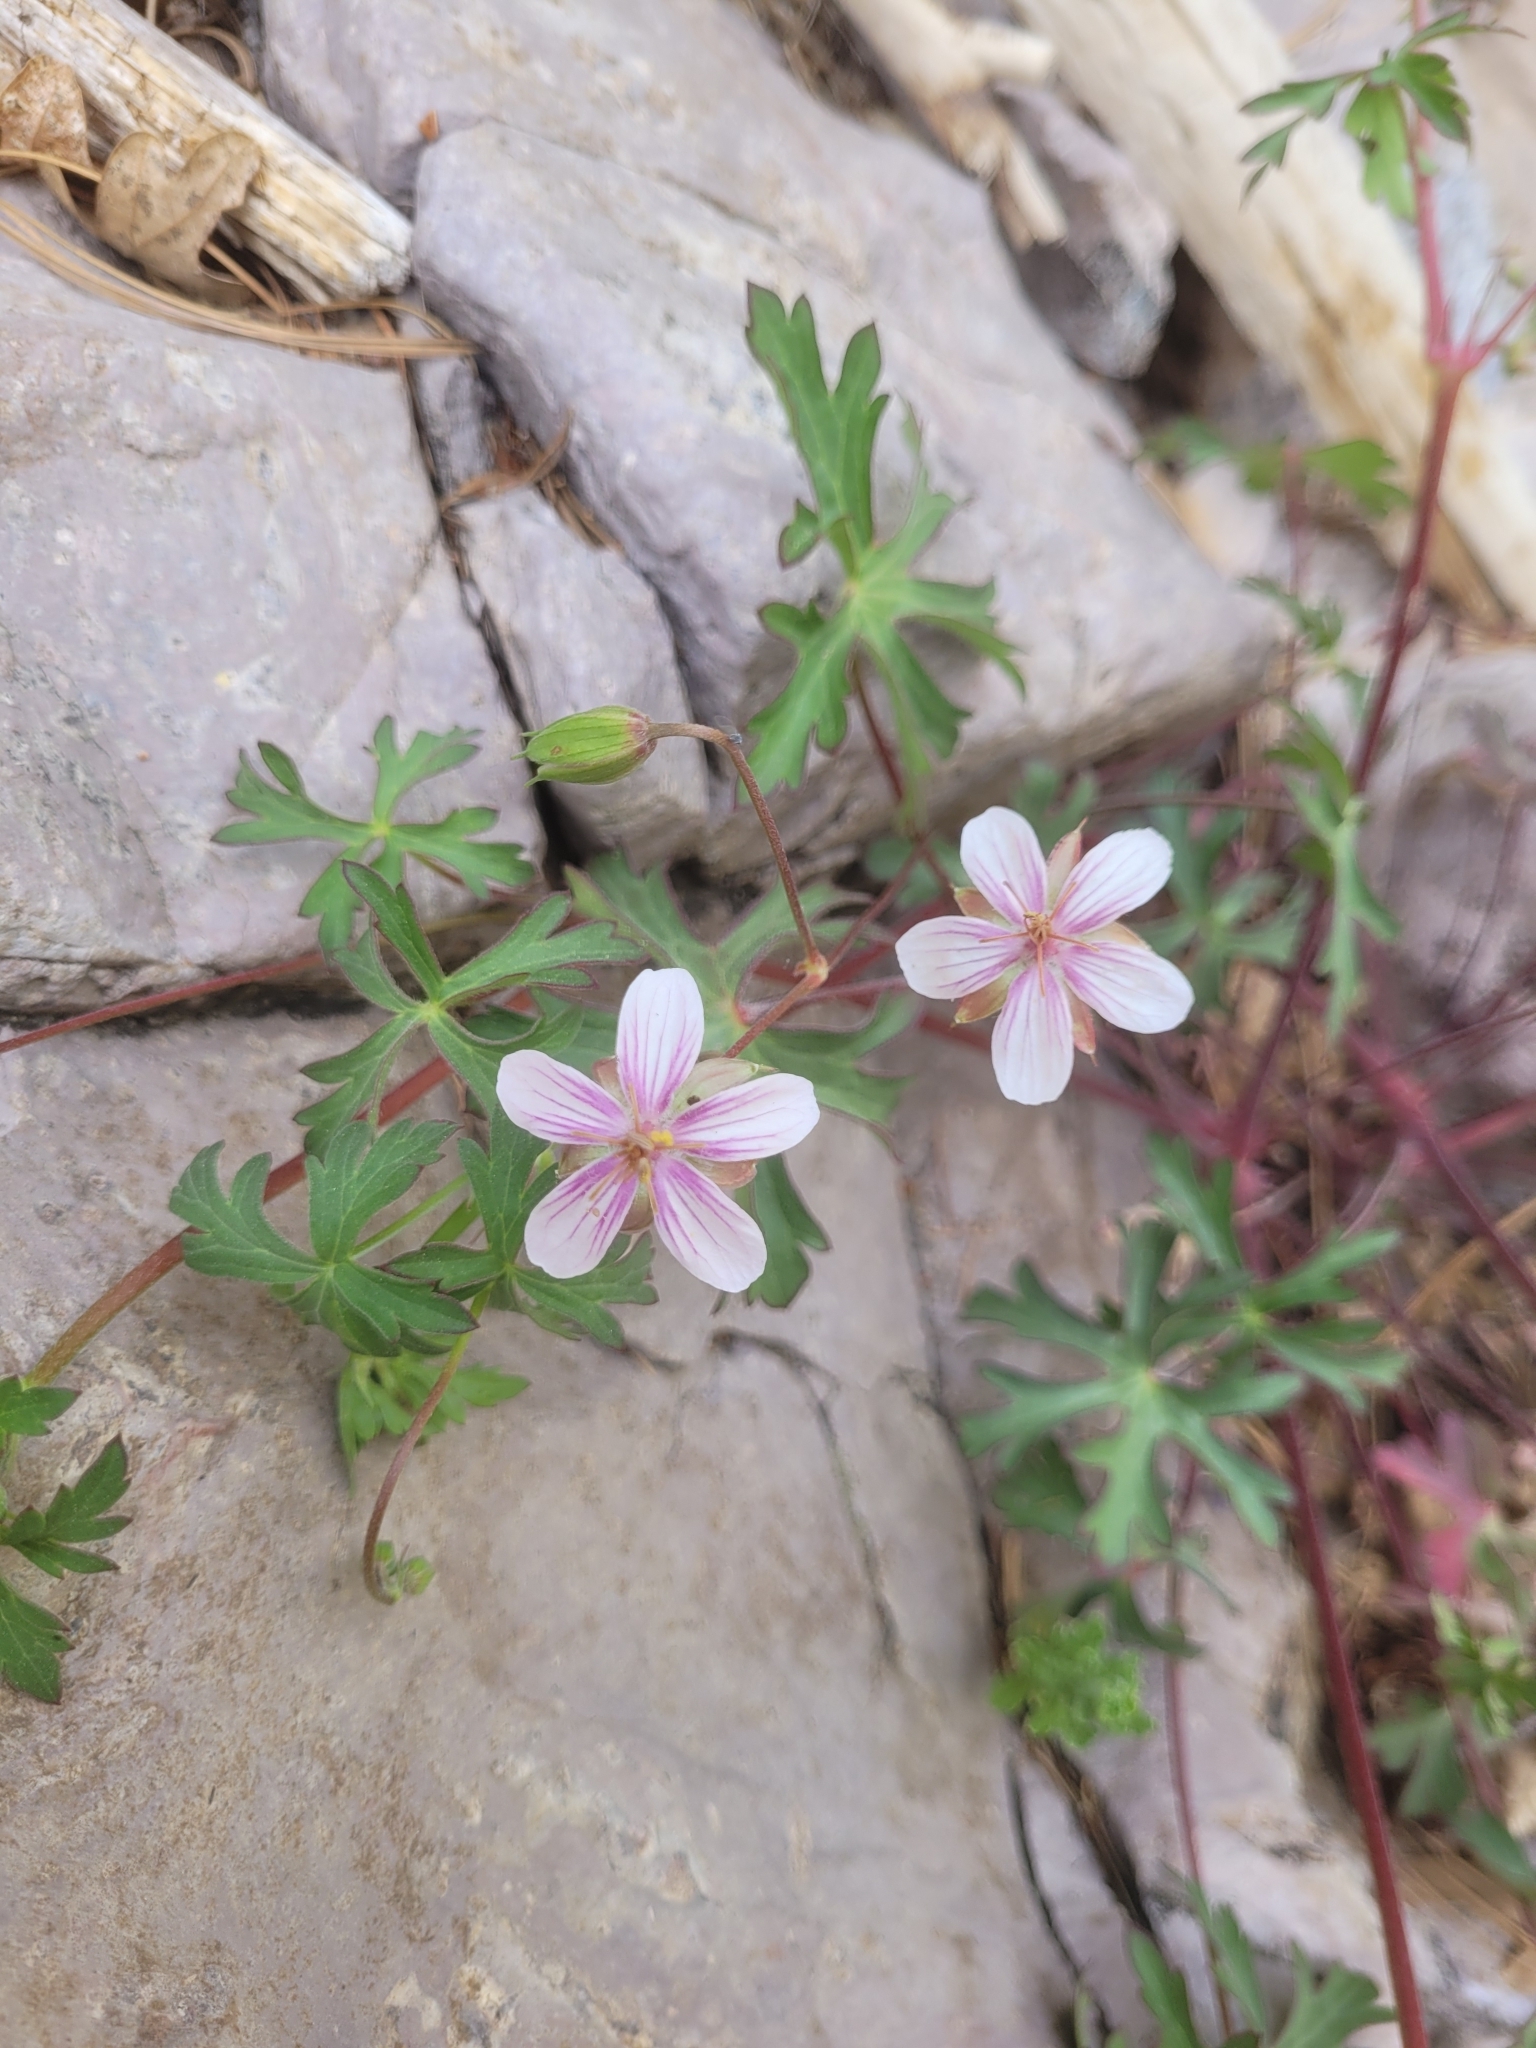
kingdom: Plantae
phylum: Tracheophyta
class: Magnoliopsida
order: Geraniales
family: Geraniaceae
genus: Geranium
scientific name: Geranium caespitosum
